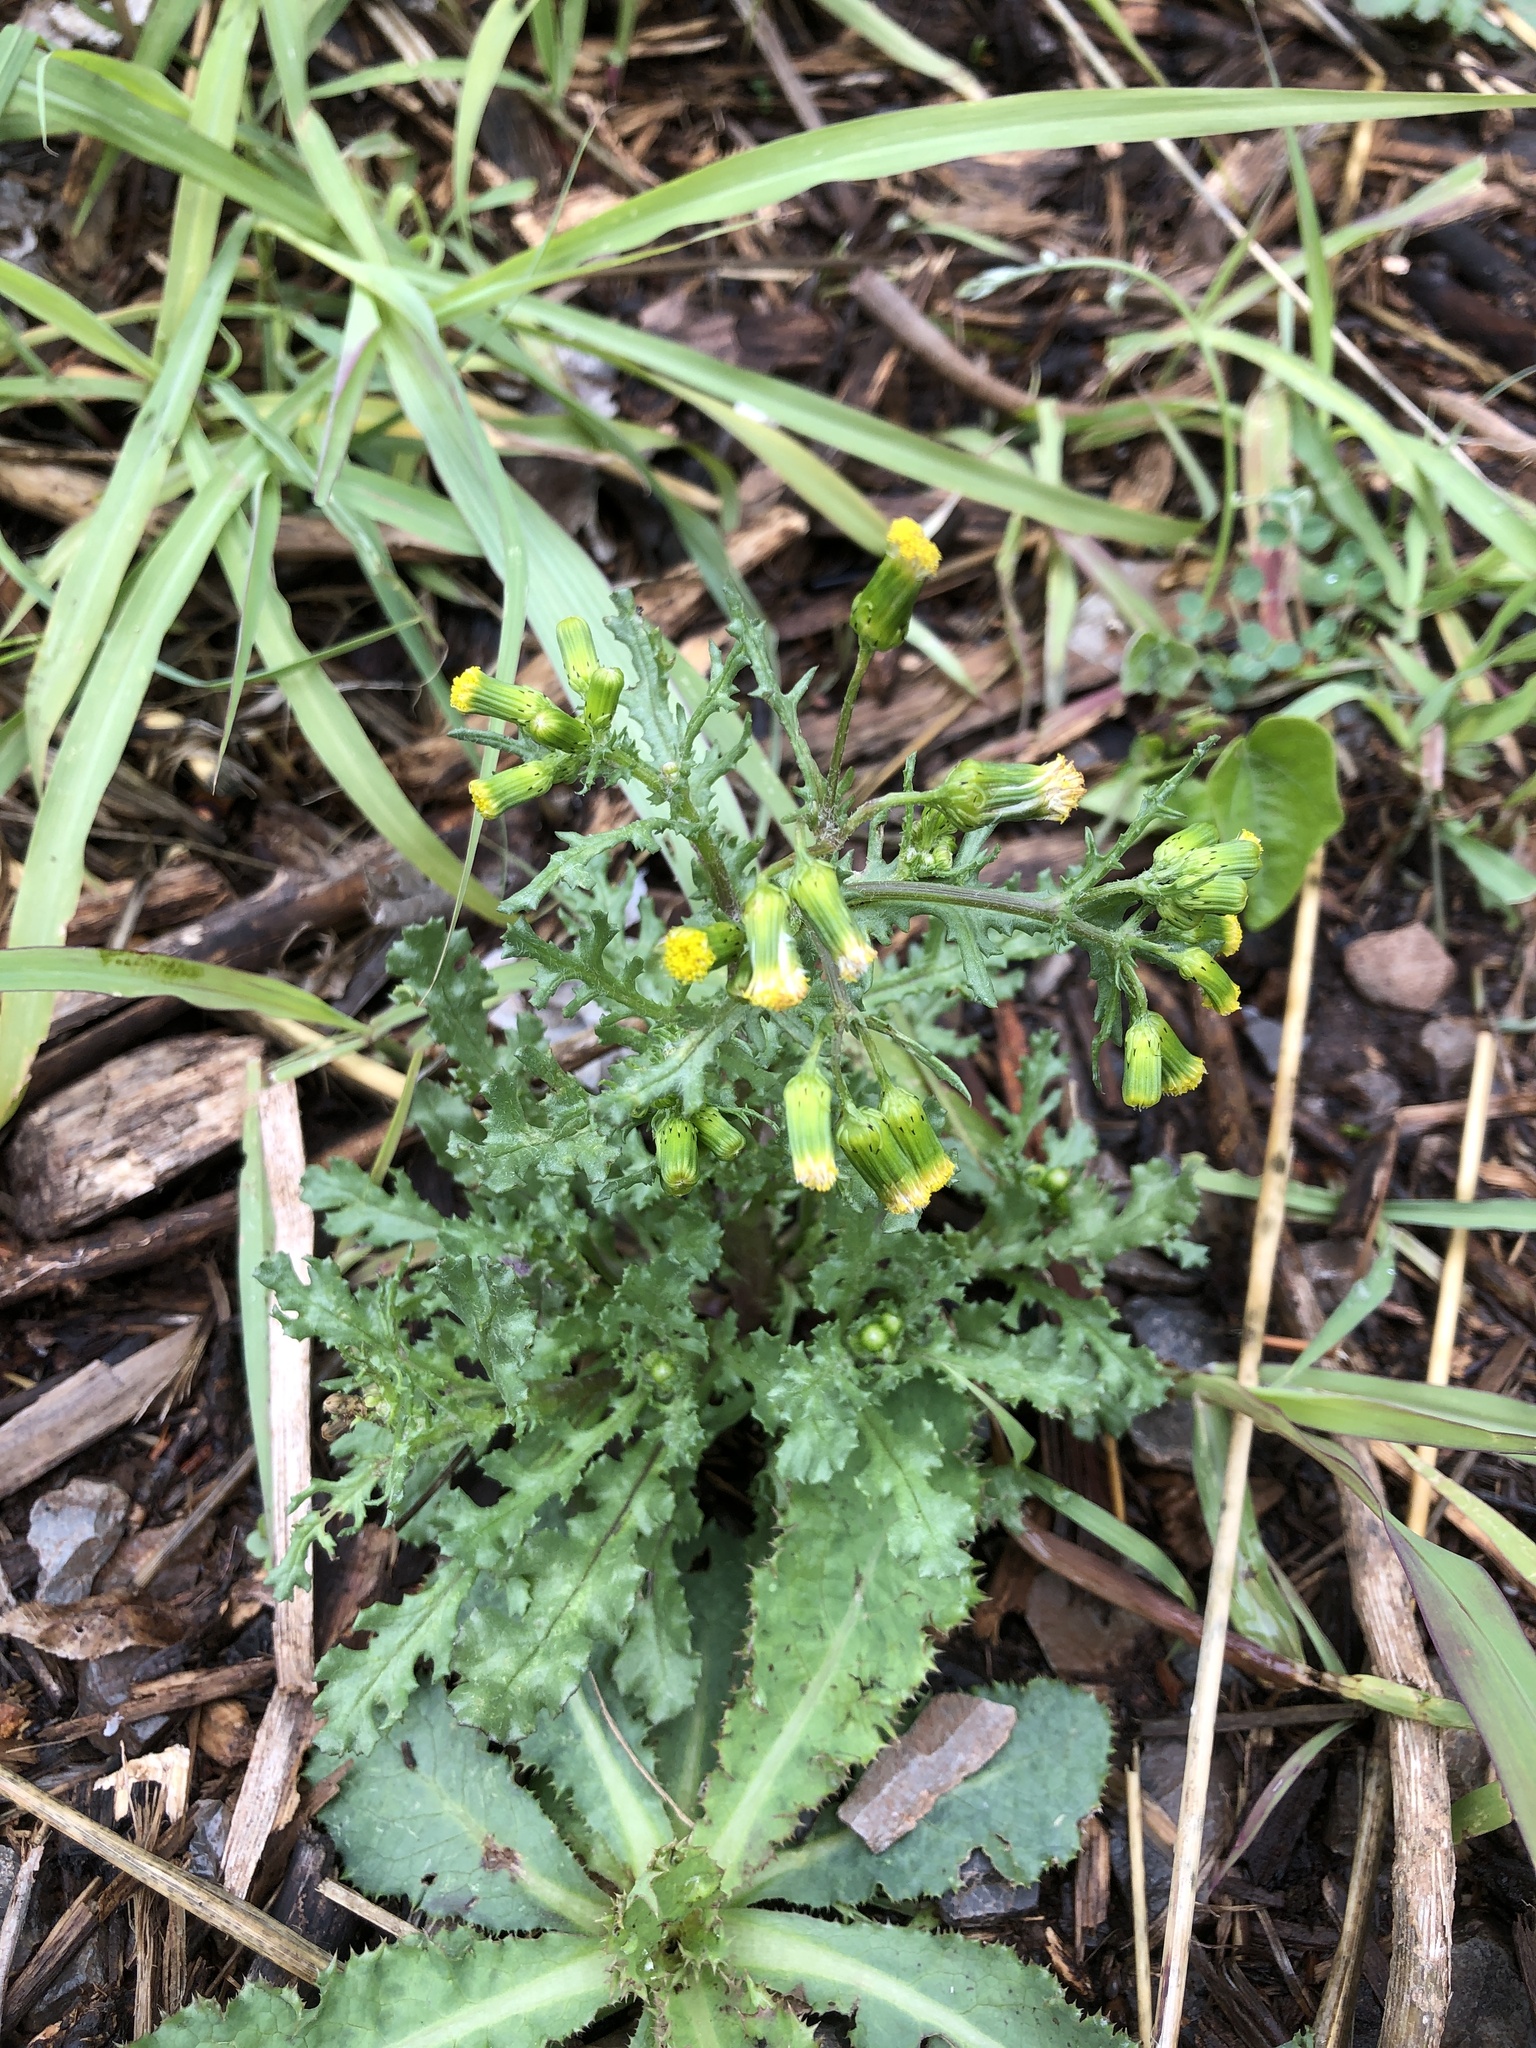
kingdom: Plantae
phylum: Tracheophyta
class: Magnoliopsida
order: Asterales
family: Asteraceae
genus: Senecio
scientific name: Senecio vulgaris
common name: Old-man-in-the-spring
